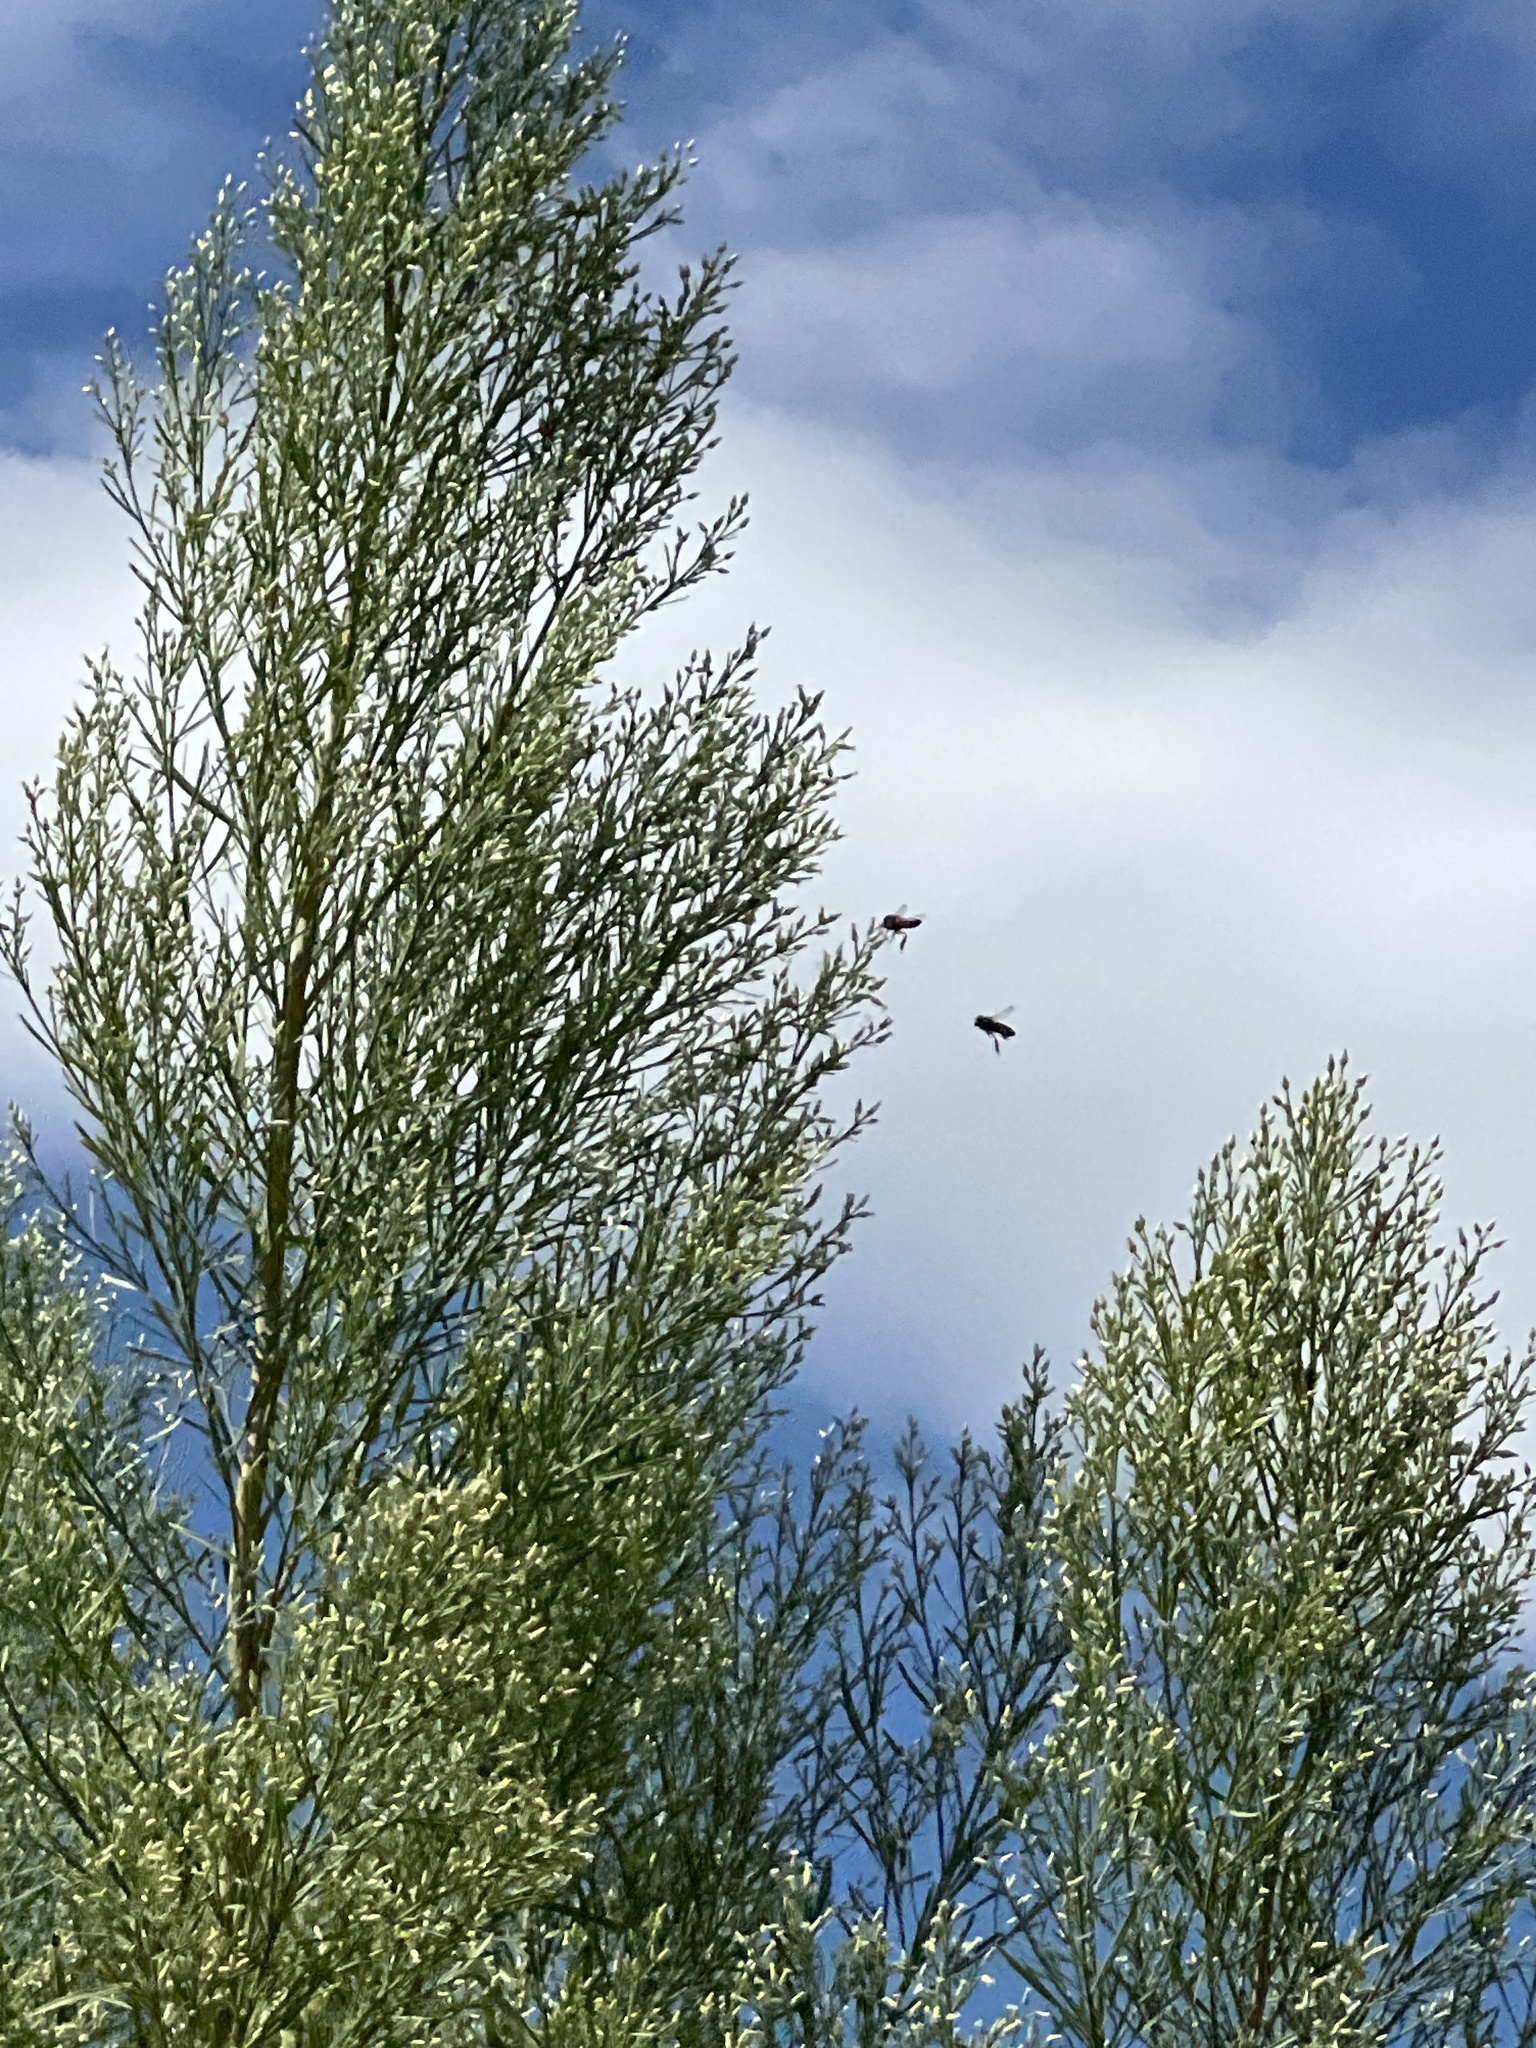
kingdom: Plantae
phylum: Tracheophyta
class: Magnoliopsida
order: Asterales
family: Asteraceae
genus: Baccharis
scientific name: Baccharis neglecta
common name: Roosevelt-weed
